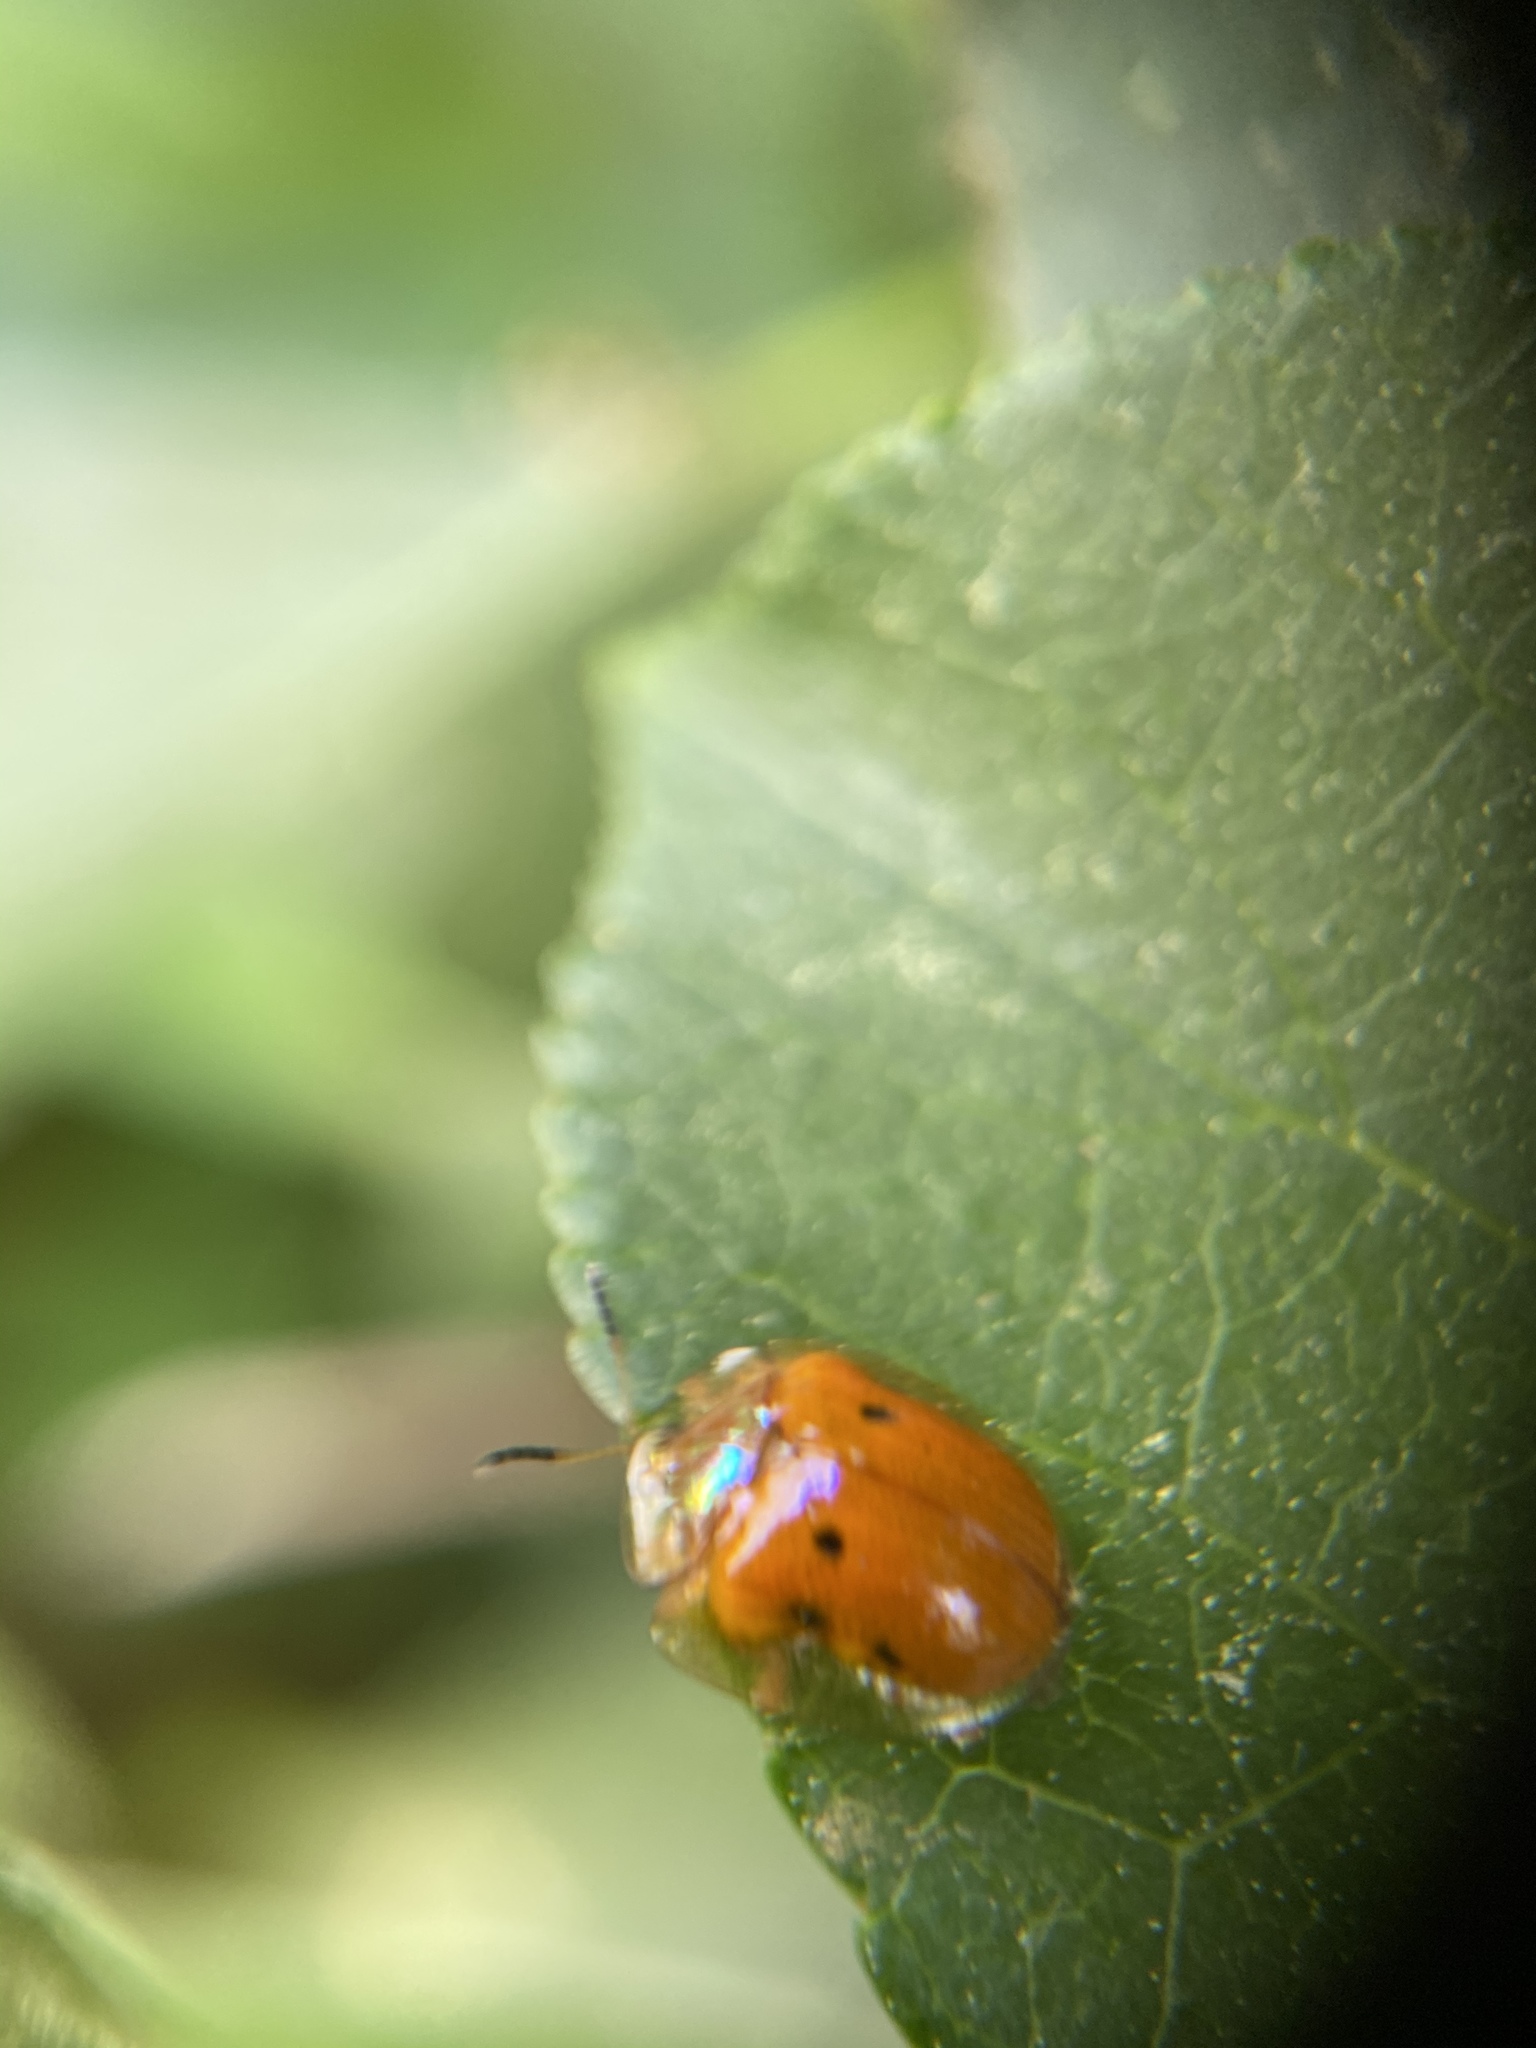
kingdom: Animalia
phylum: Arthropoda
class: Insecta
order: Coleoptera
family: Chrysomelidae
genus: Charidotella
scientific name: Charidotella sexpunctata
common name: Golden tortoise beetle
